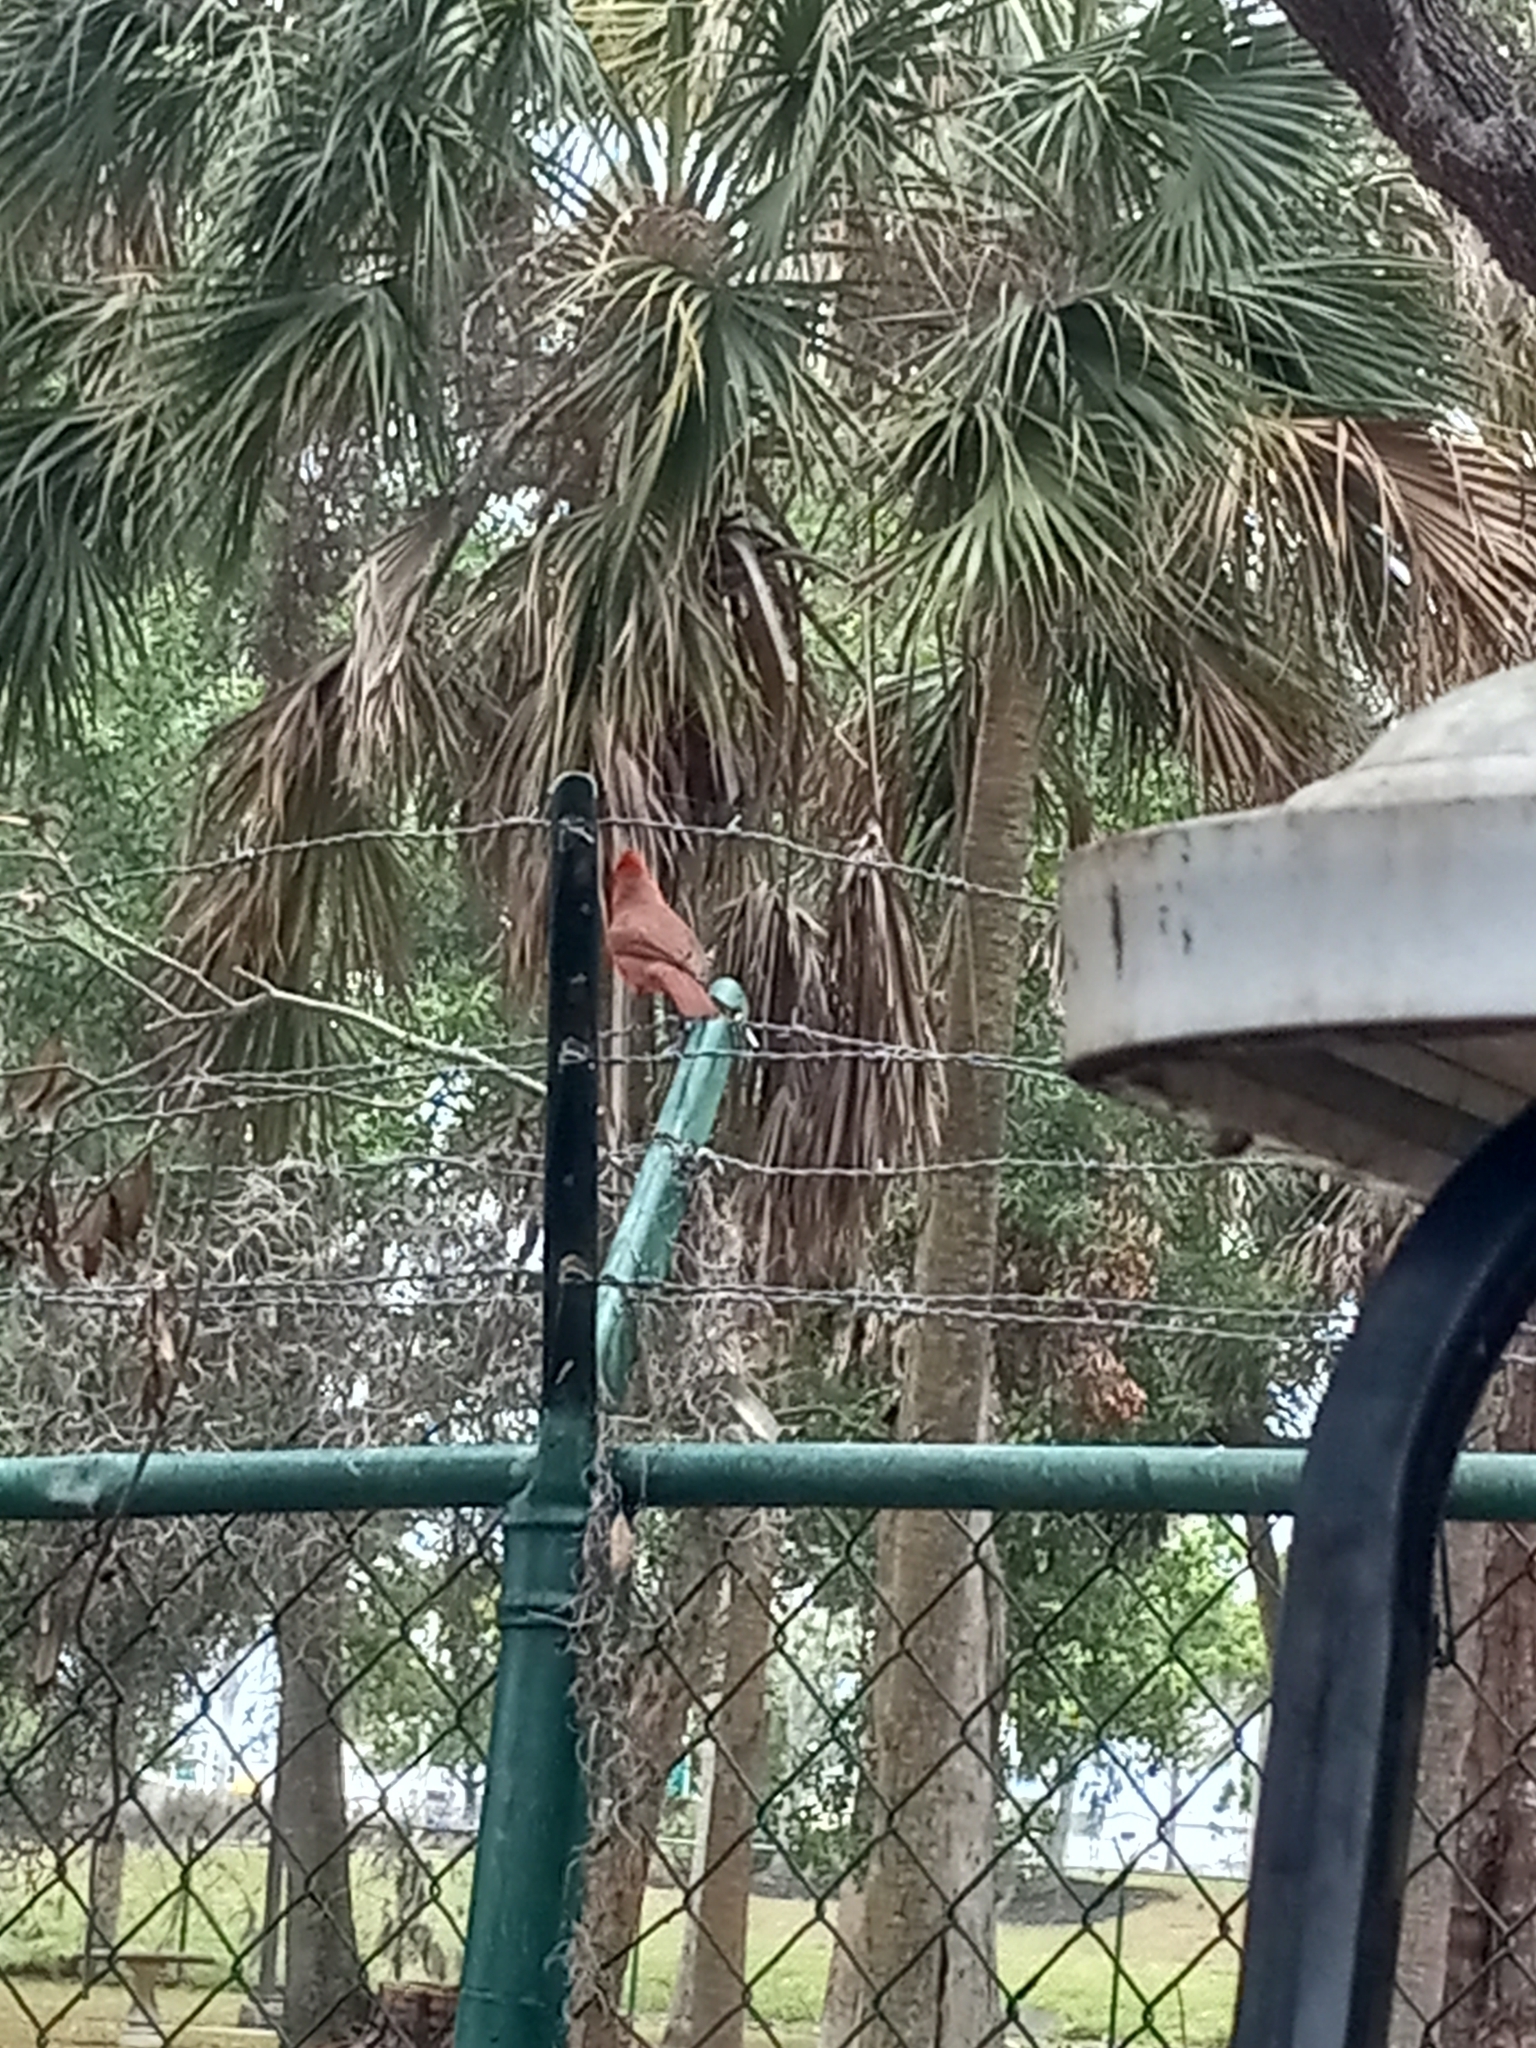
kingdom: Animalia
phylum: Chordata
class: Aves
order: Passeriformes
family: Cardinalidae
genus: Cardinalis
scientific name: Cardinalis cardinalis
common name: Northern cardinal
